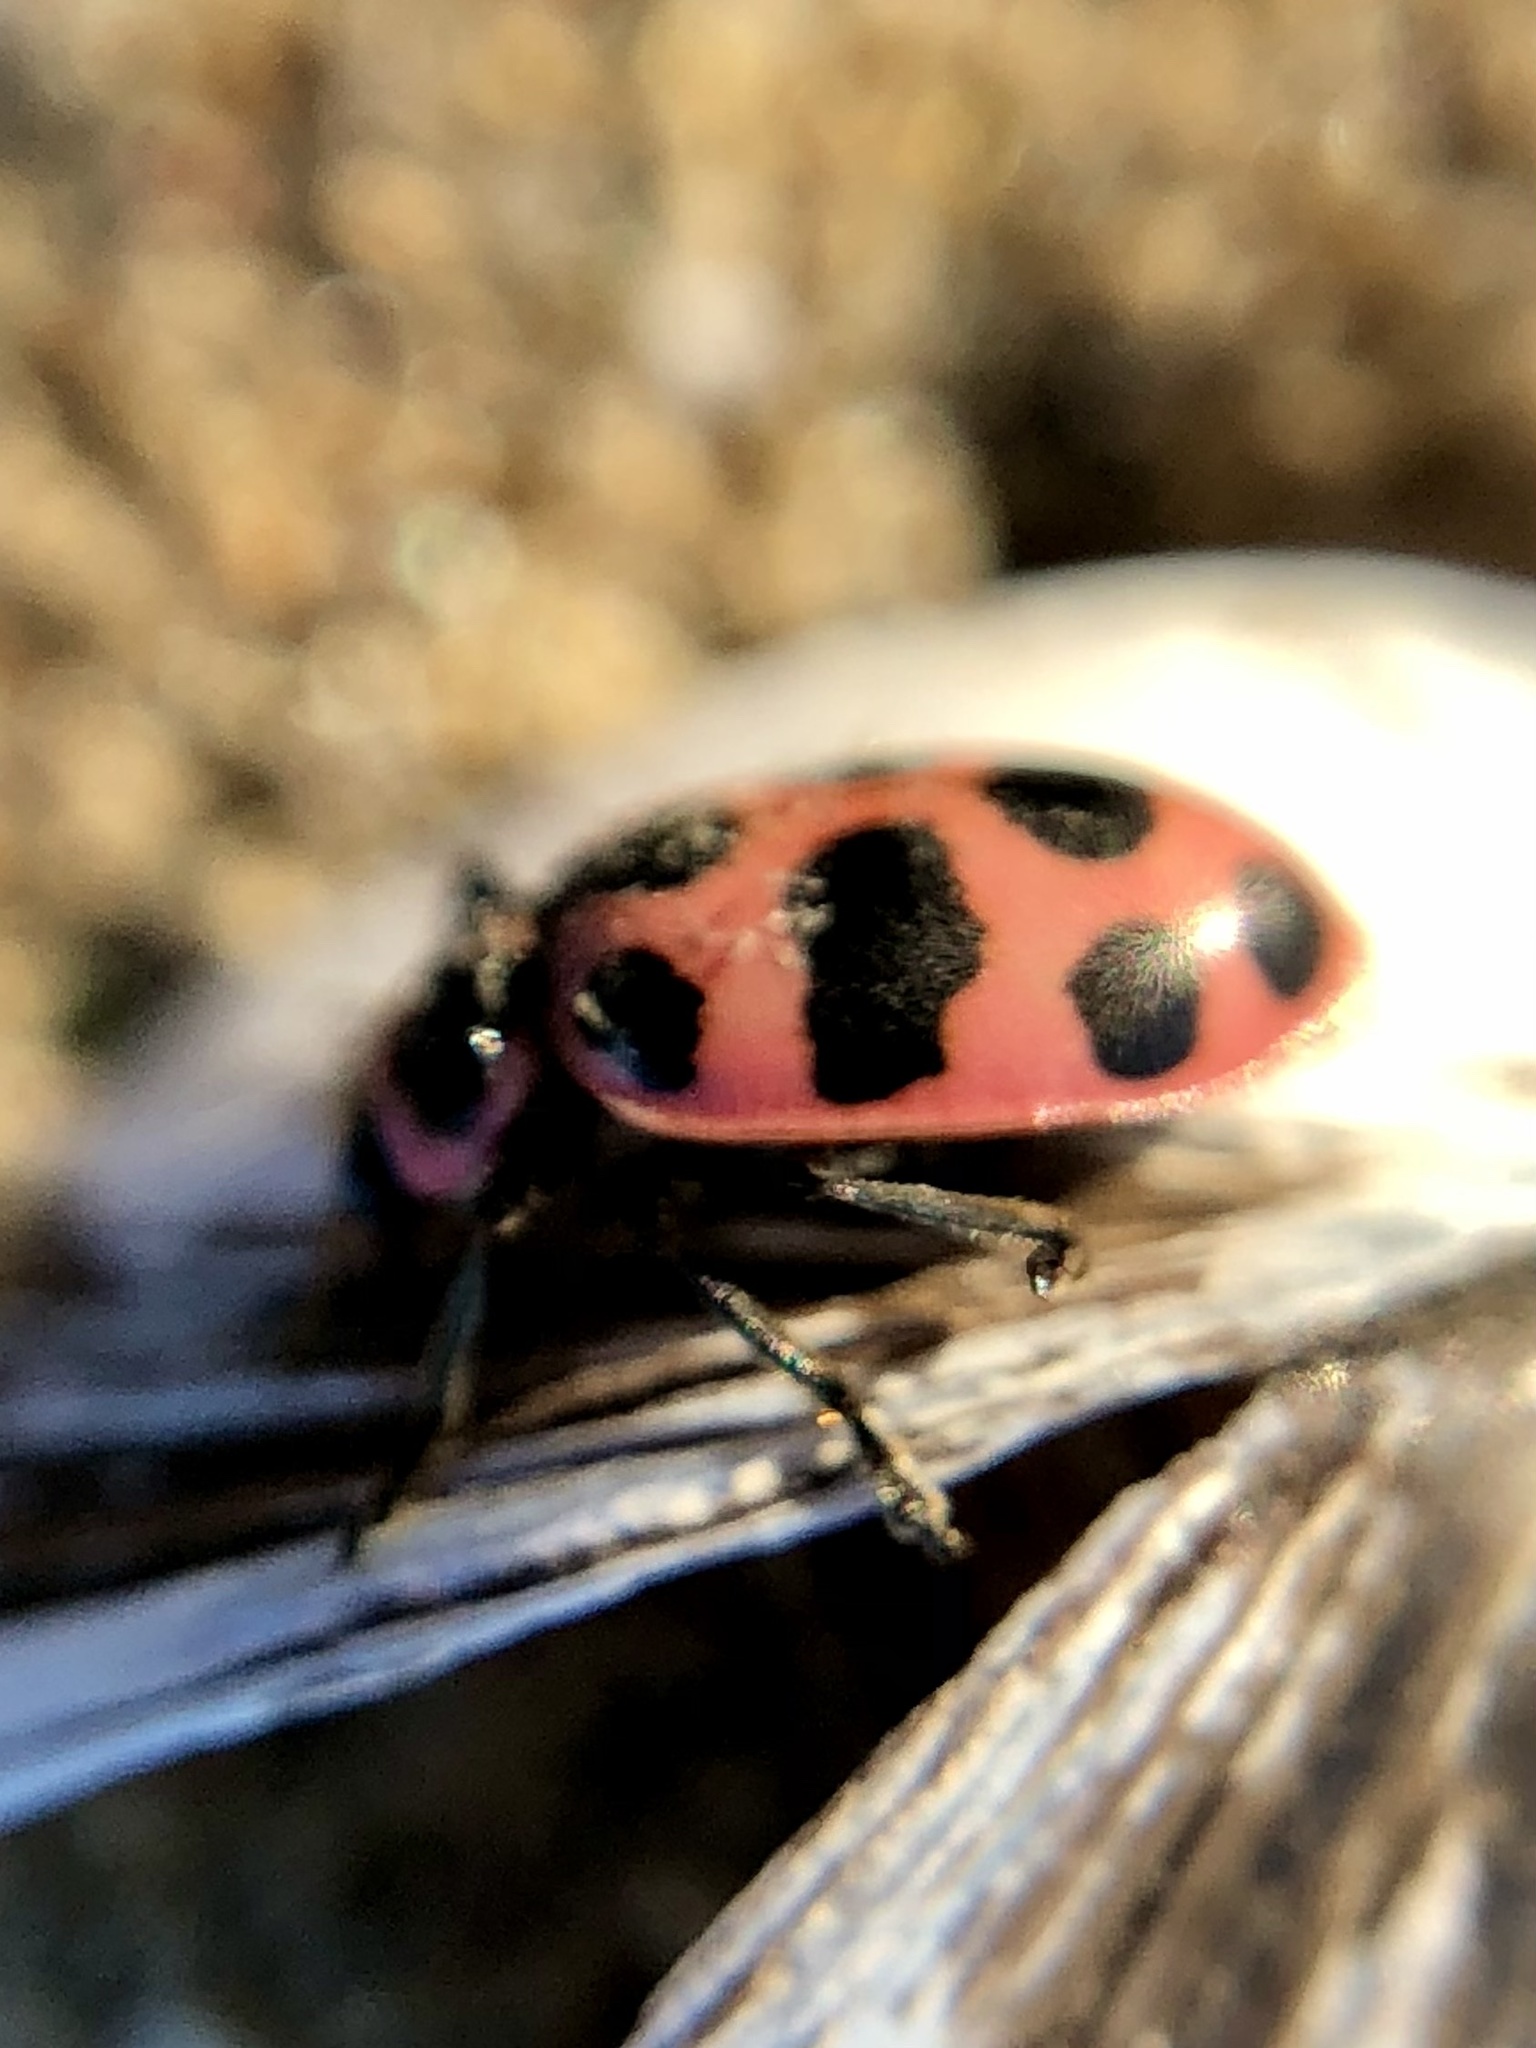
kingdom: Animalia
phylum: Arthropoda
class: Insecta
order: Coleoptera
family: Coccinellidae
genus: Coleomegilla
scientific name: Coleomegilla maculata
